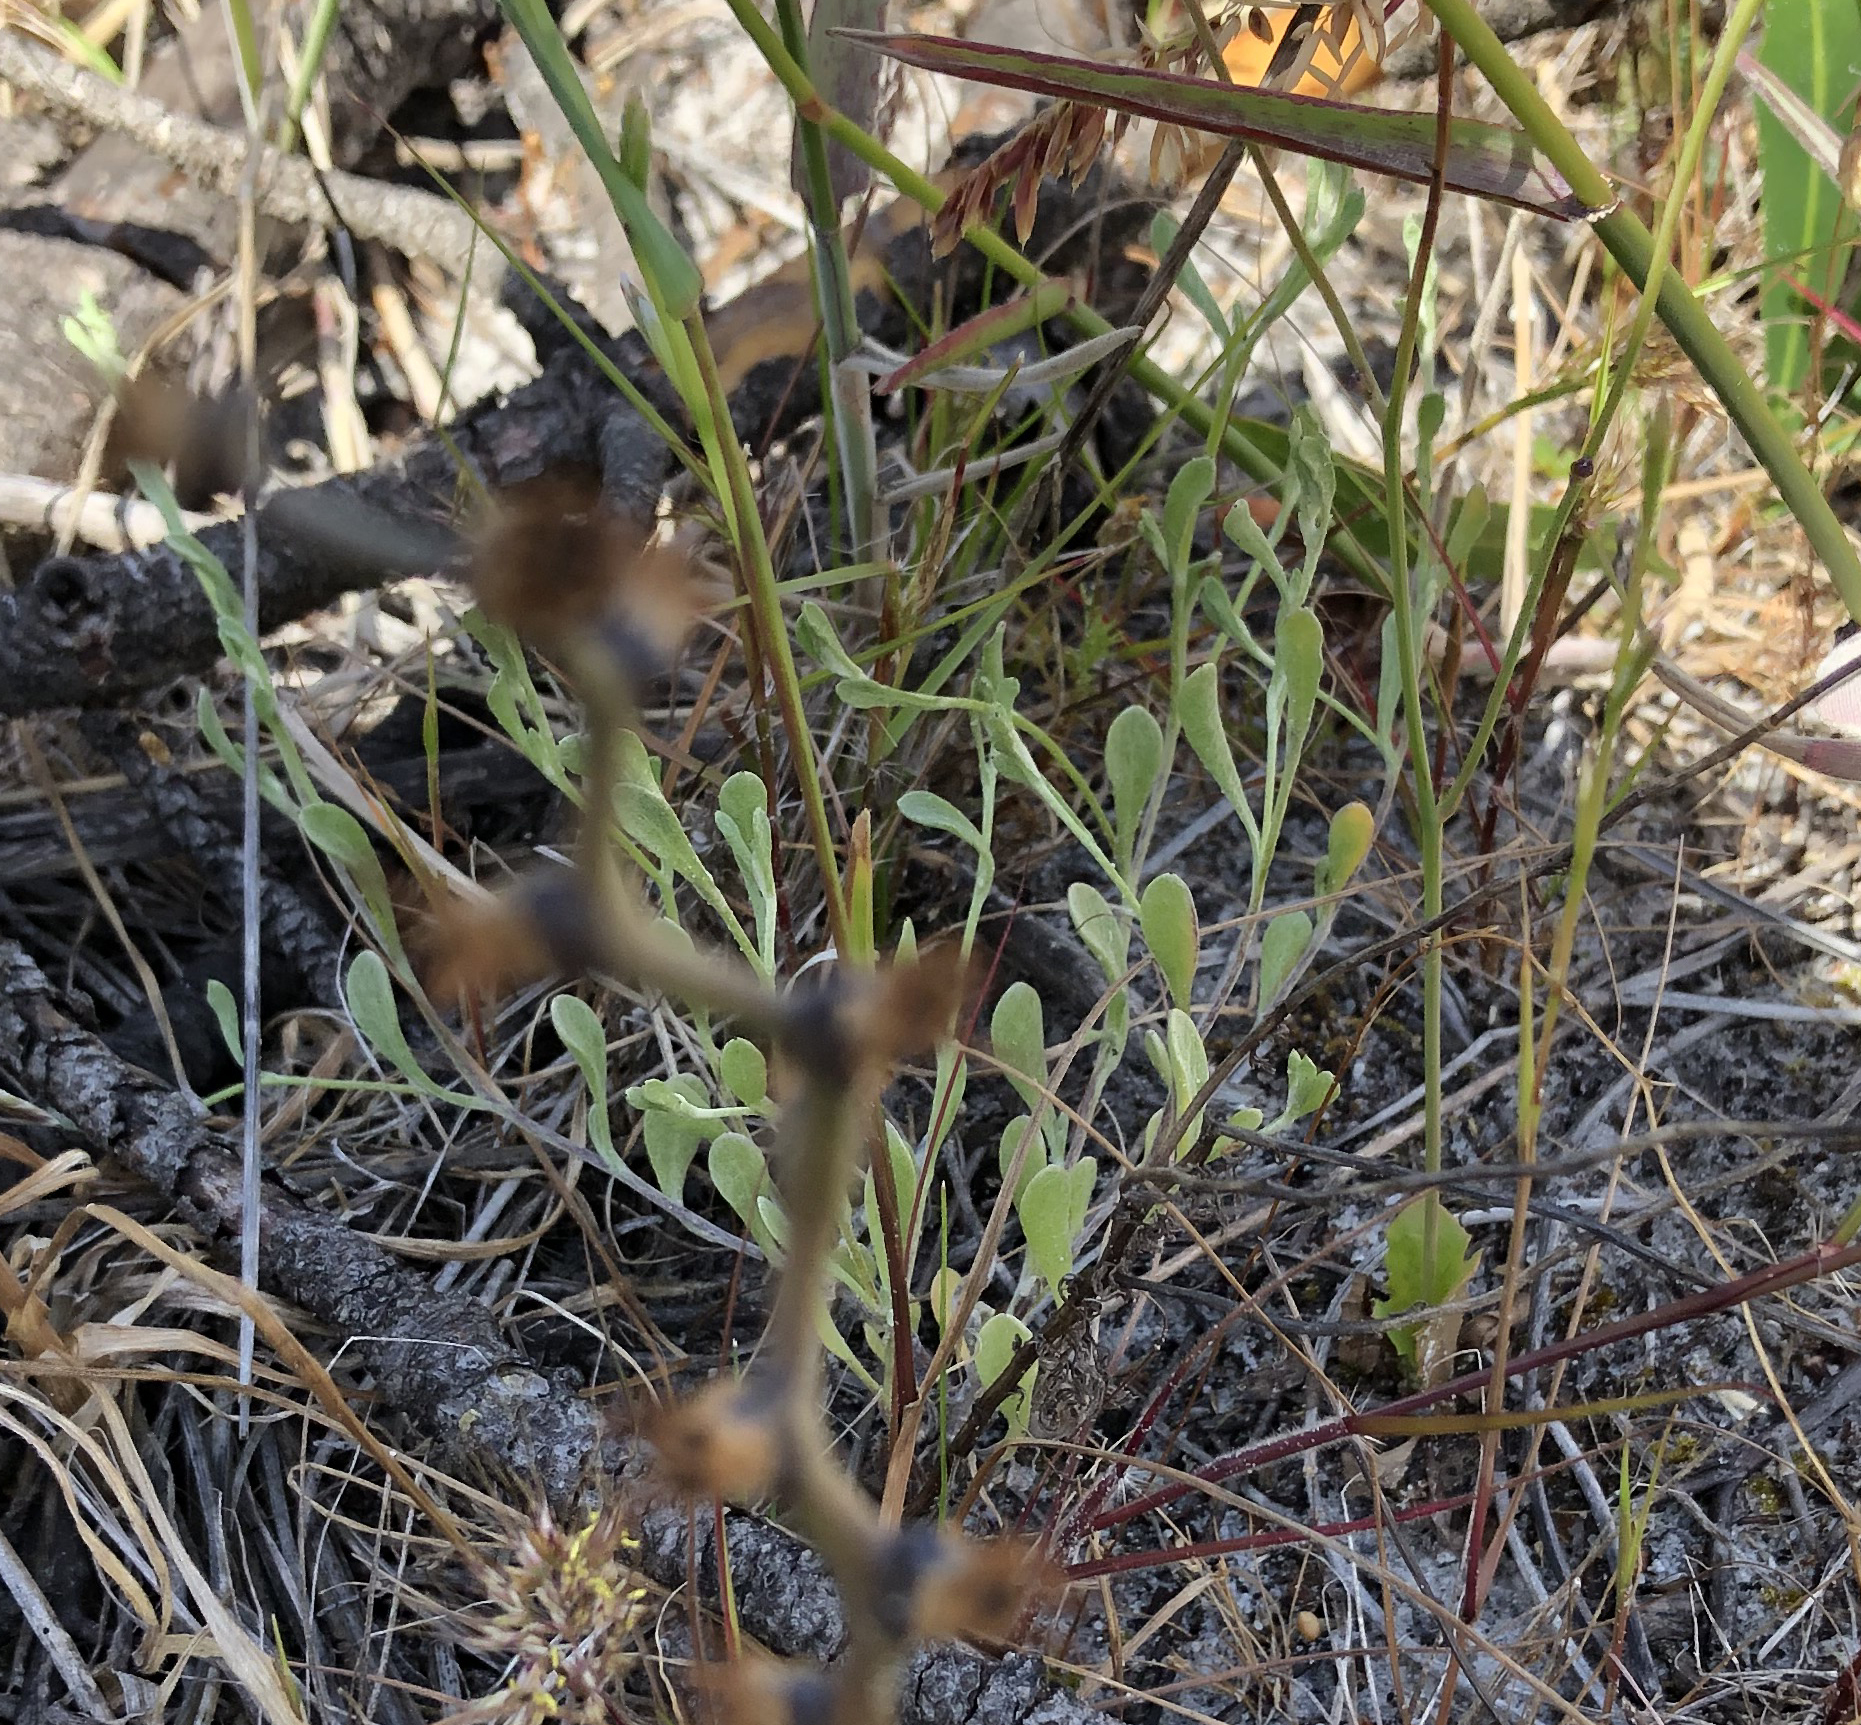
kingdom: Plantae
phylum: Tracheophyta
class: Magnoliopsida
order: Asterales
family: Asteraceae
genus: Helichrysum
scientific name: Helichrysum indicum
